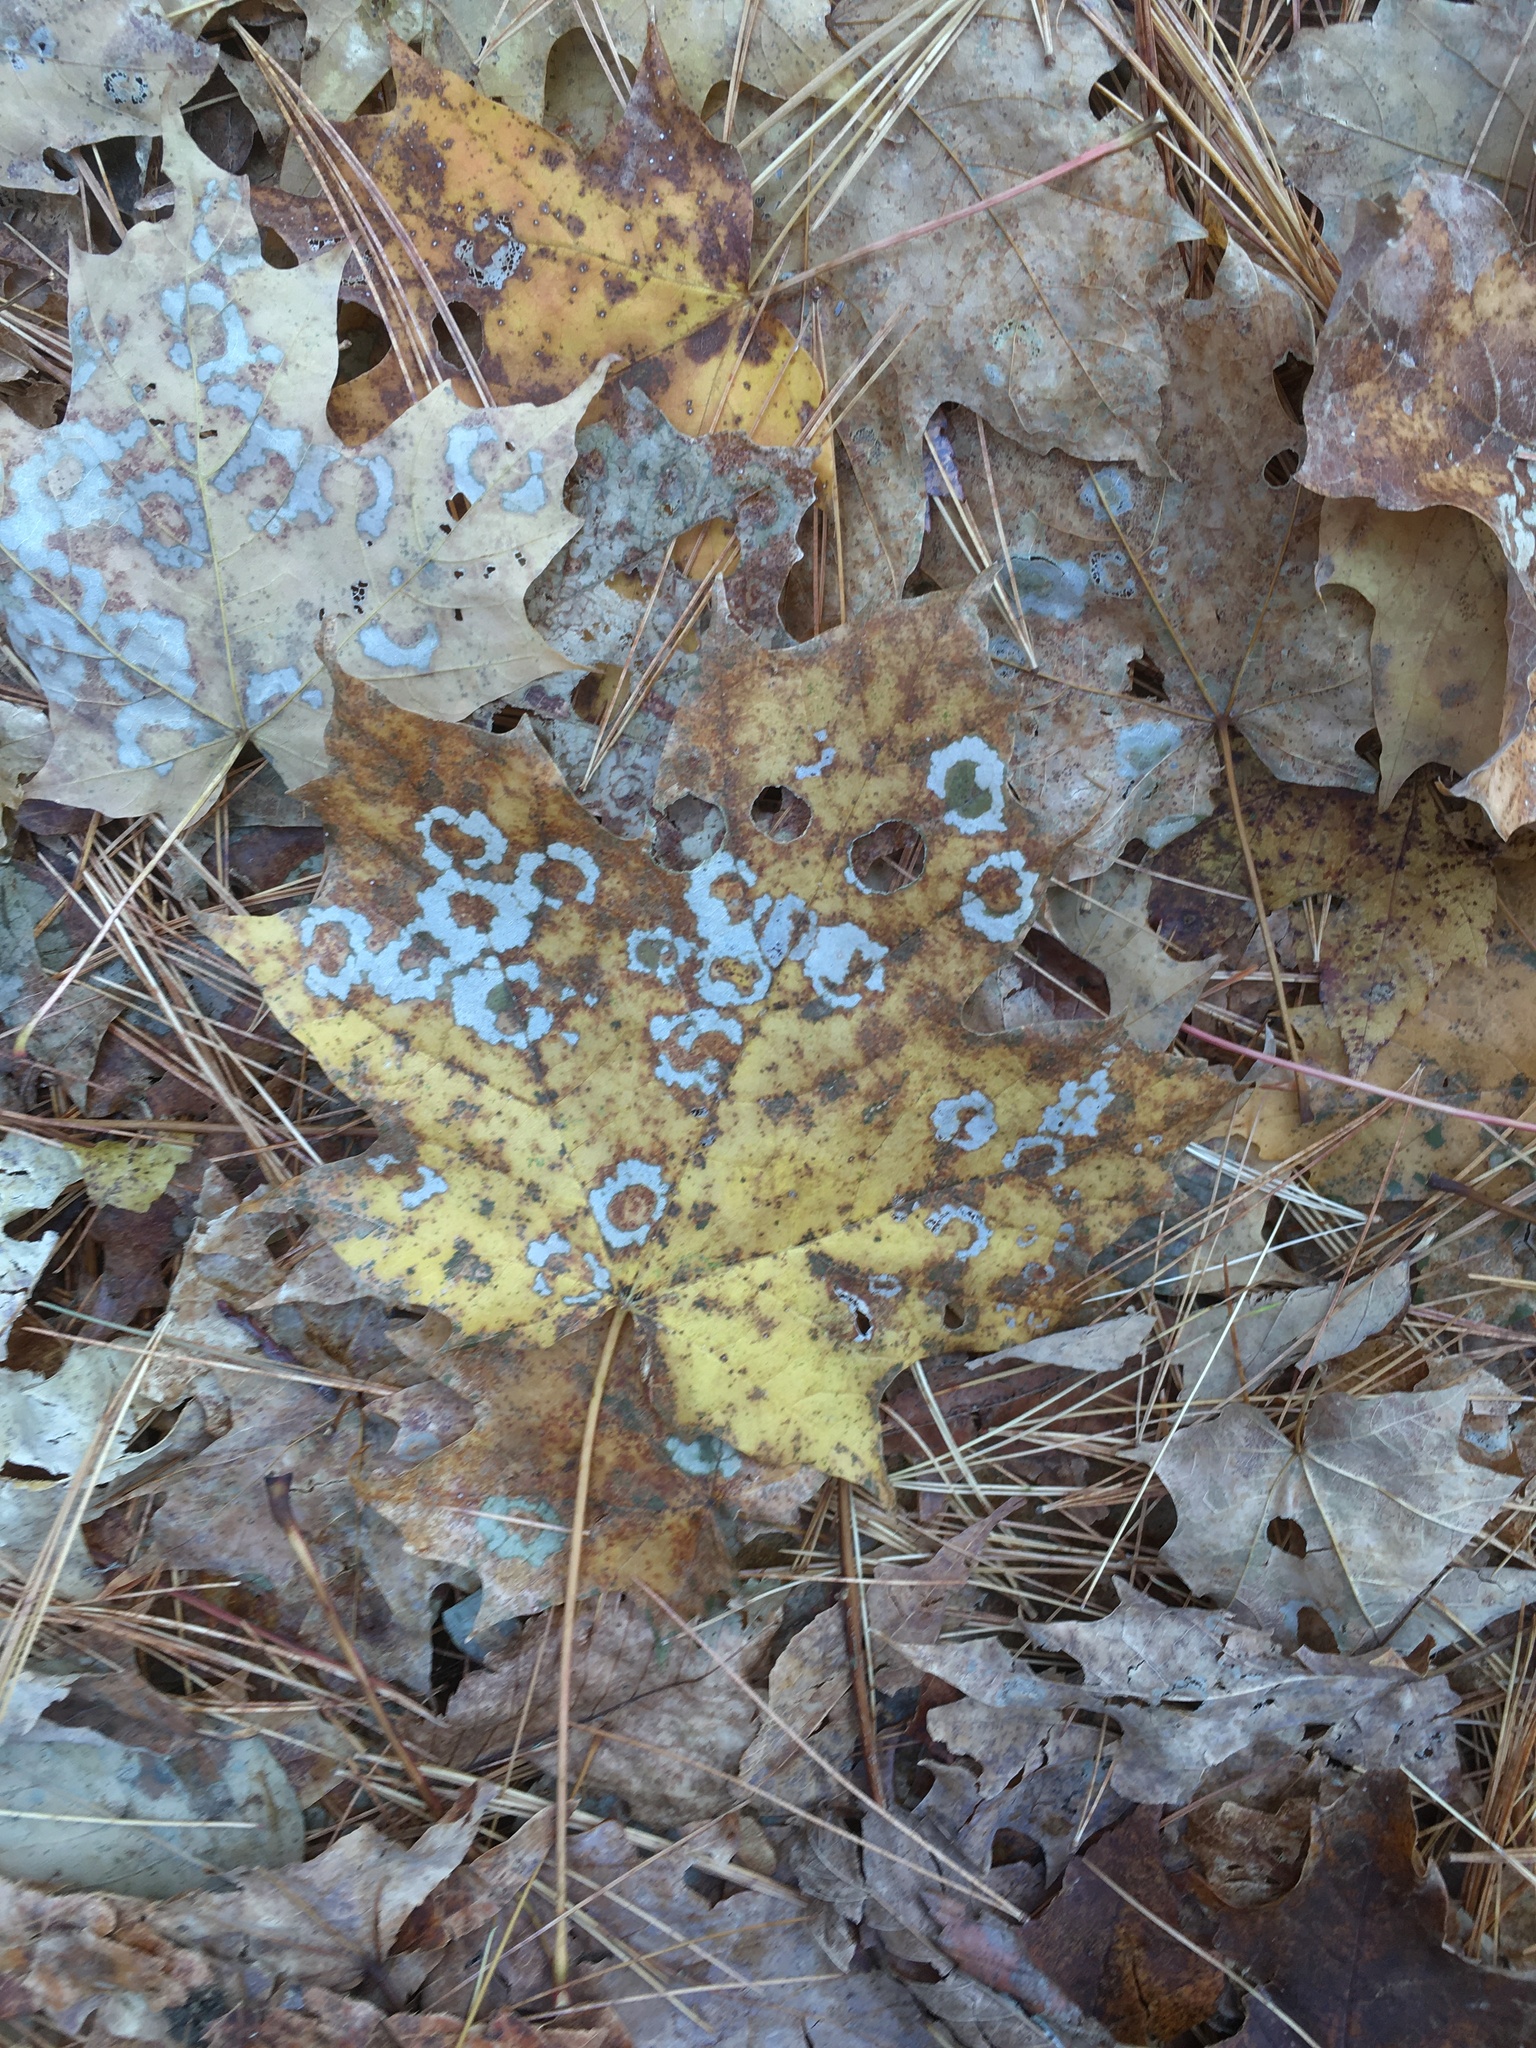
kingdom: Animalia
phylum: Arthropoda
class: Insecta
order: Lepidoptera
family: Incurvariidae
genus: Paraclemensia
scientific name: Paraclemensia acerifoliella
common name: Maple leafcutter
